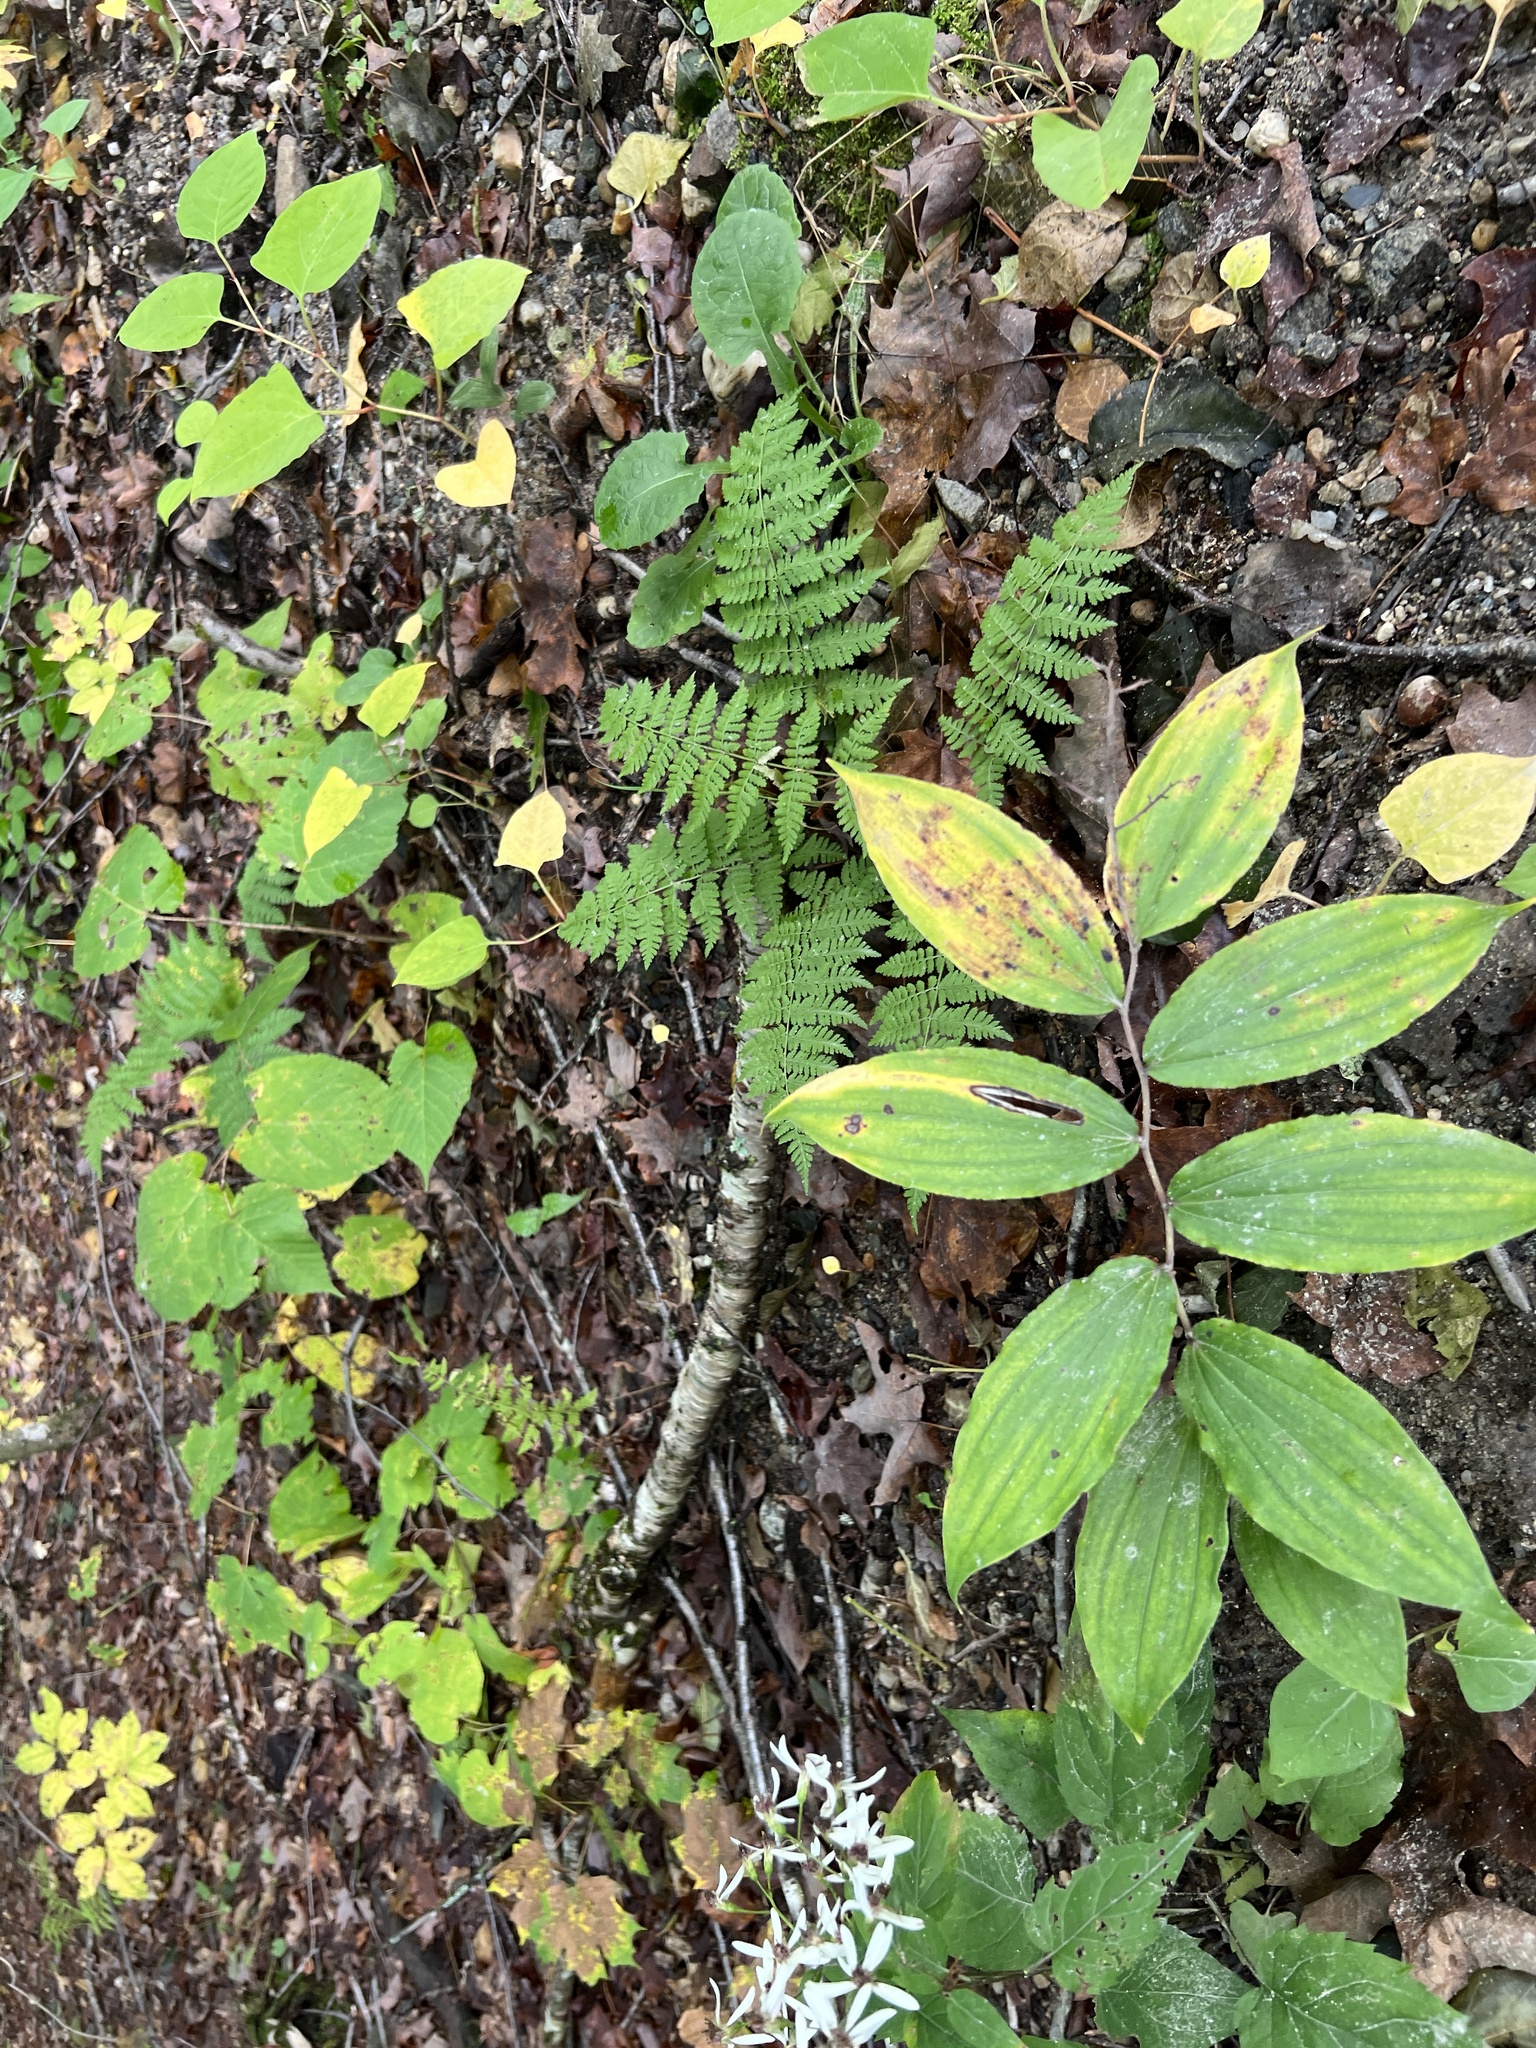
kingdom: Plantae
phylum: Tracheophyta
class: Liliopsida
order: Asparagales
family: Asparagaceae
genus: Maianthemum
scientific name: Maianthemum racemosum
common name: False spikenard
